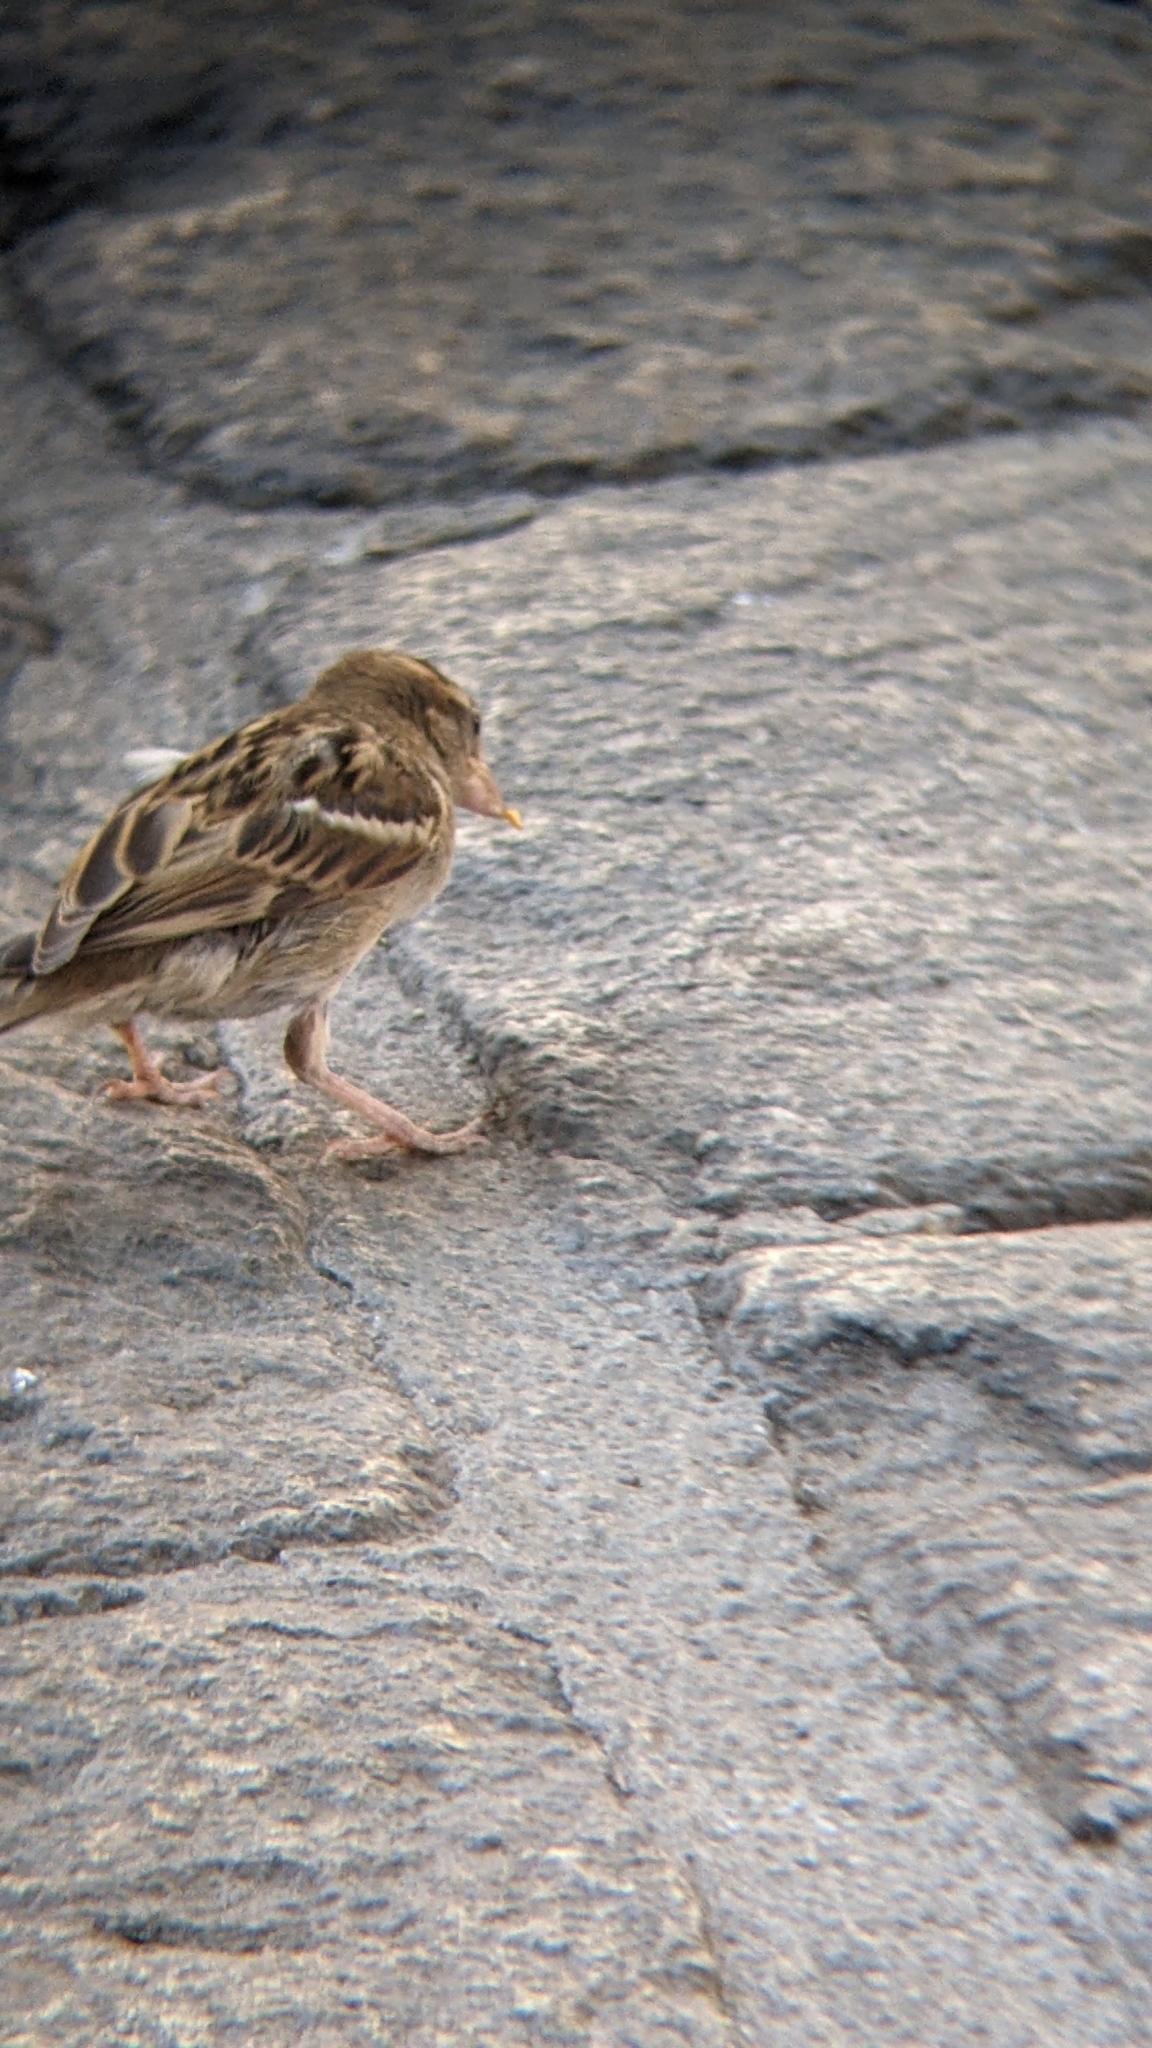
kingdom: Animalia
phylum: Chordata
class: Aves
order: Passeriformes
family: Passeridae
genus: Passer
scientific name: Passer domesticus
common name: House sparrow
